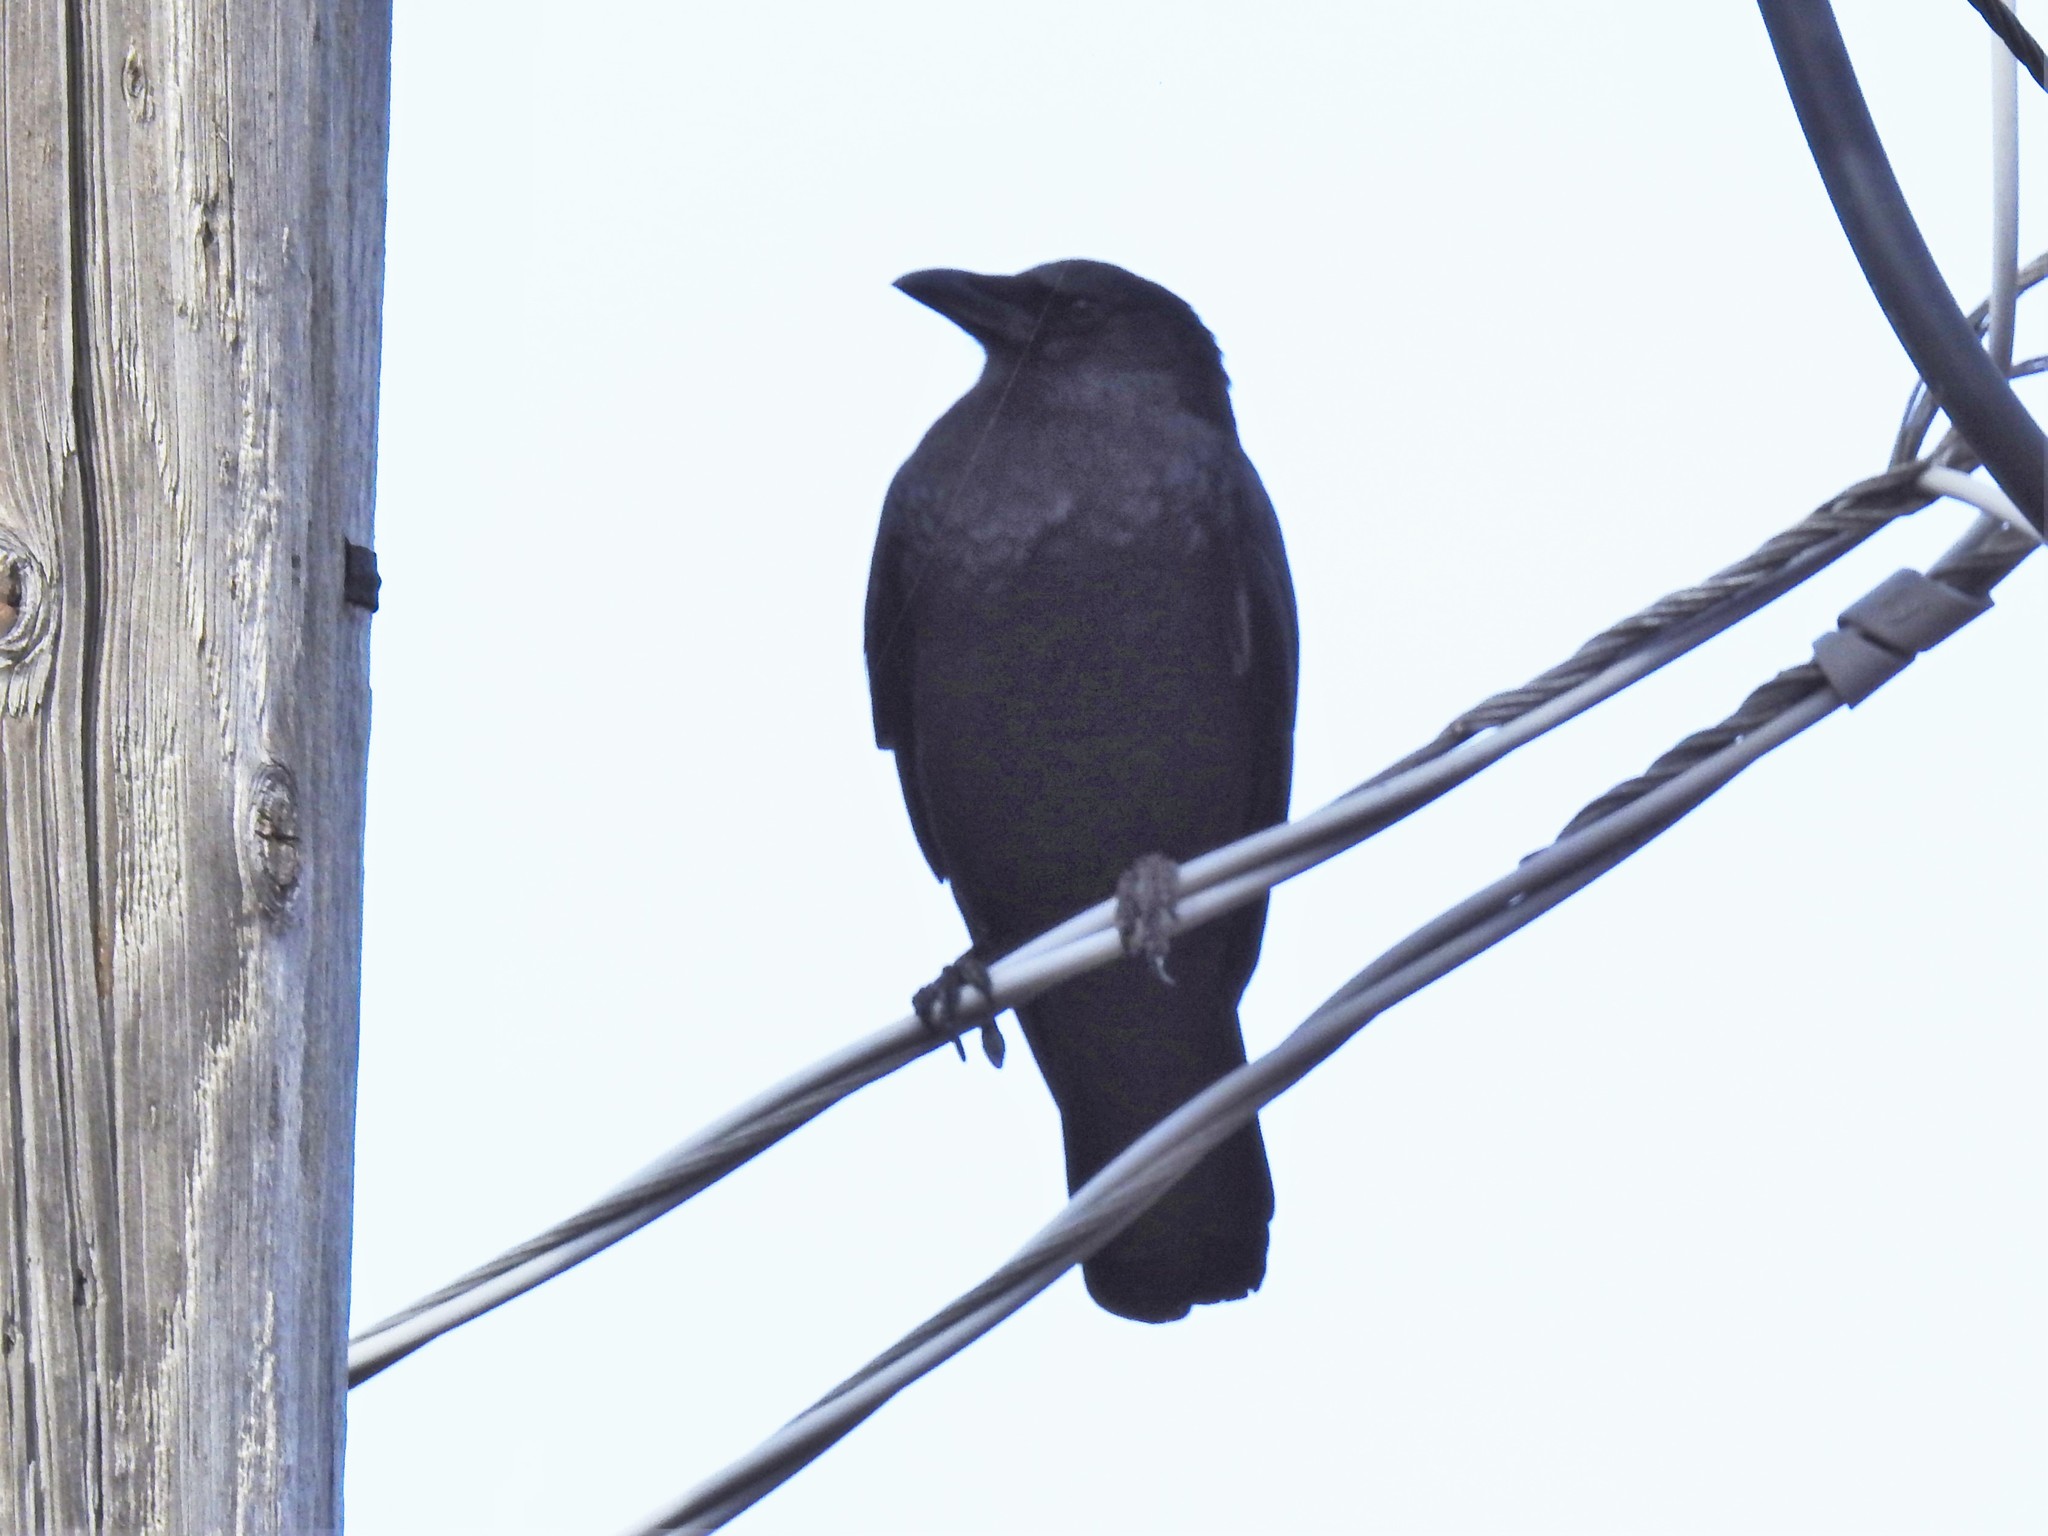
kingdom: Animalia
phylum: Chordata
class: Aves
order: Passeriformes
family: Corvidae
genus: Corvus
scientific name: Corvus brachyrhynchos
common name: American crow
